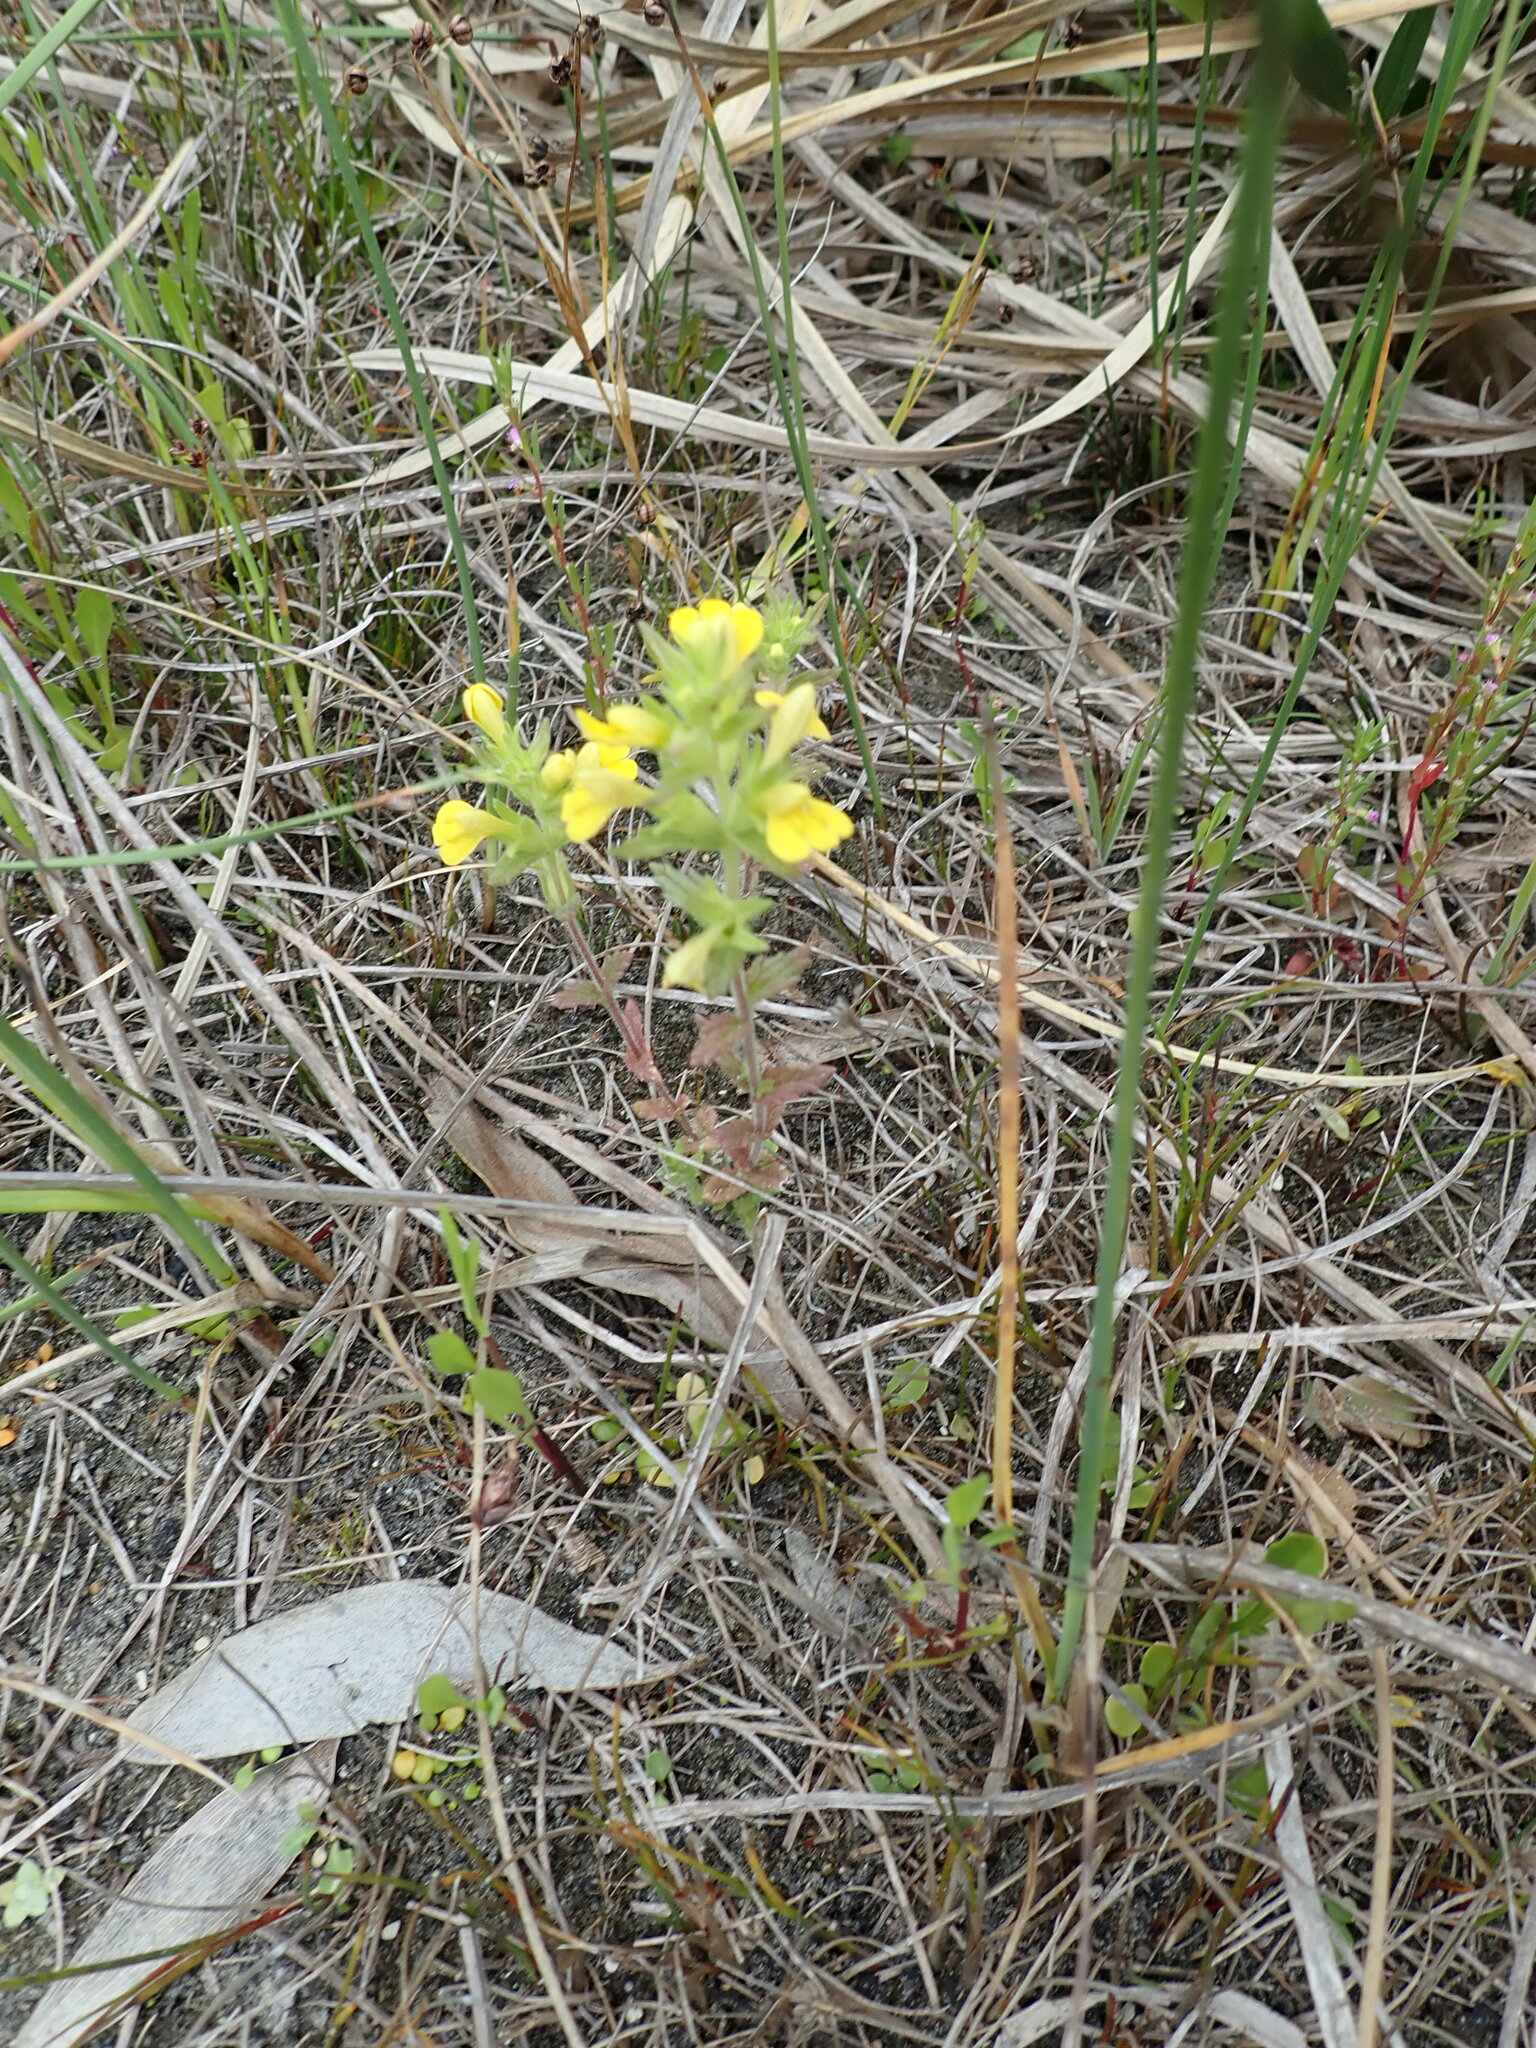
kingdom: Plantae
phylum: Tracheophyta
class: Magnoliopsida
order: Lamiales
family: Orobanchaceae
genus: Bellardia
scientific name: Bellardia viscosa
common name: Sticky parentucellia
